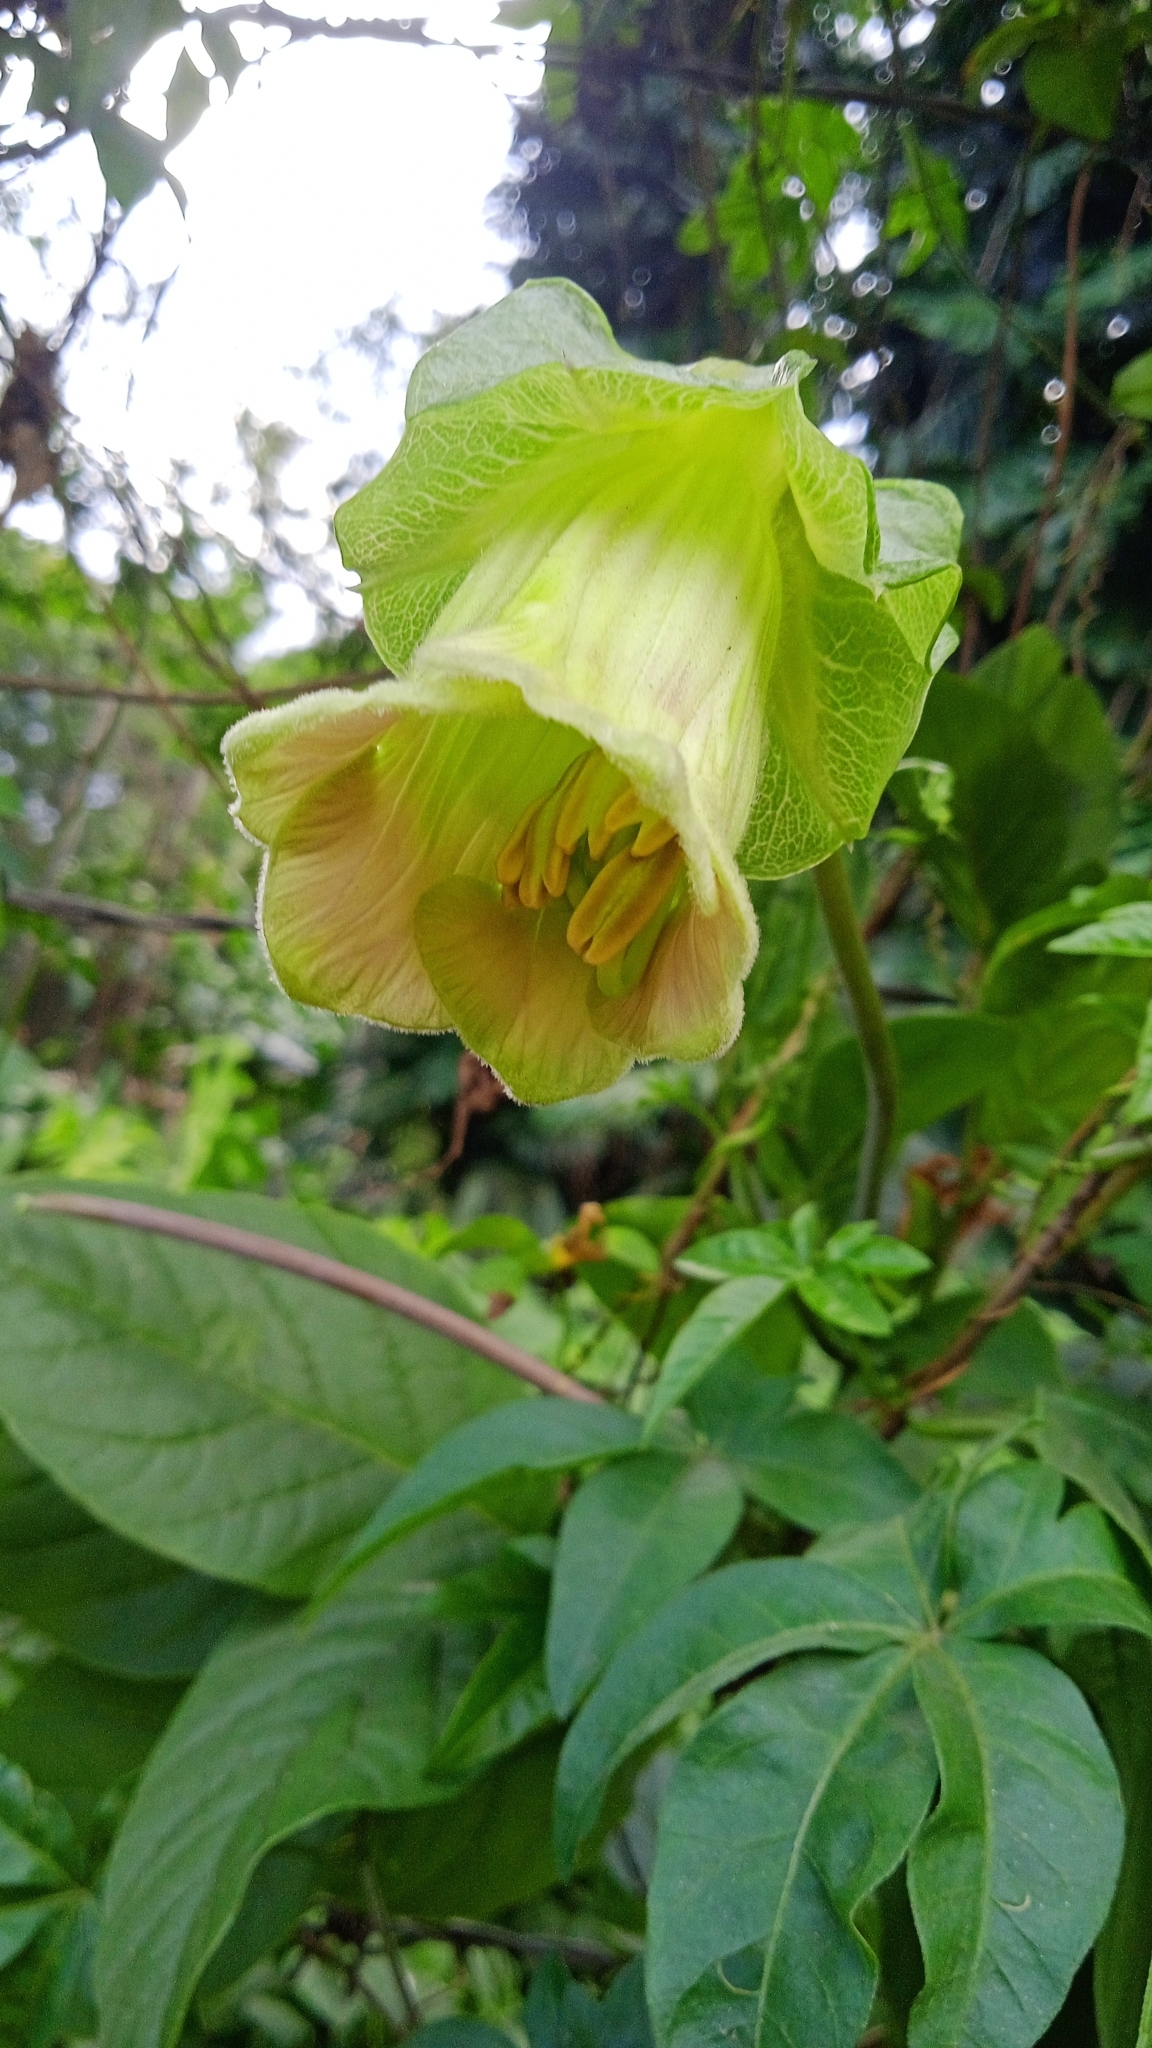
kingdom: Plantae
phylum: Tracheophyta
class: Magnoliopsida
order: Ericales
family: Polemoniaceae
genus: Cobaea
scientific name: Cobaea scandens
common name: Cup-and-saucer-vine
